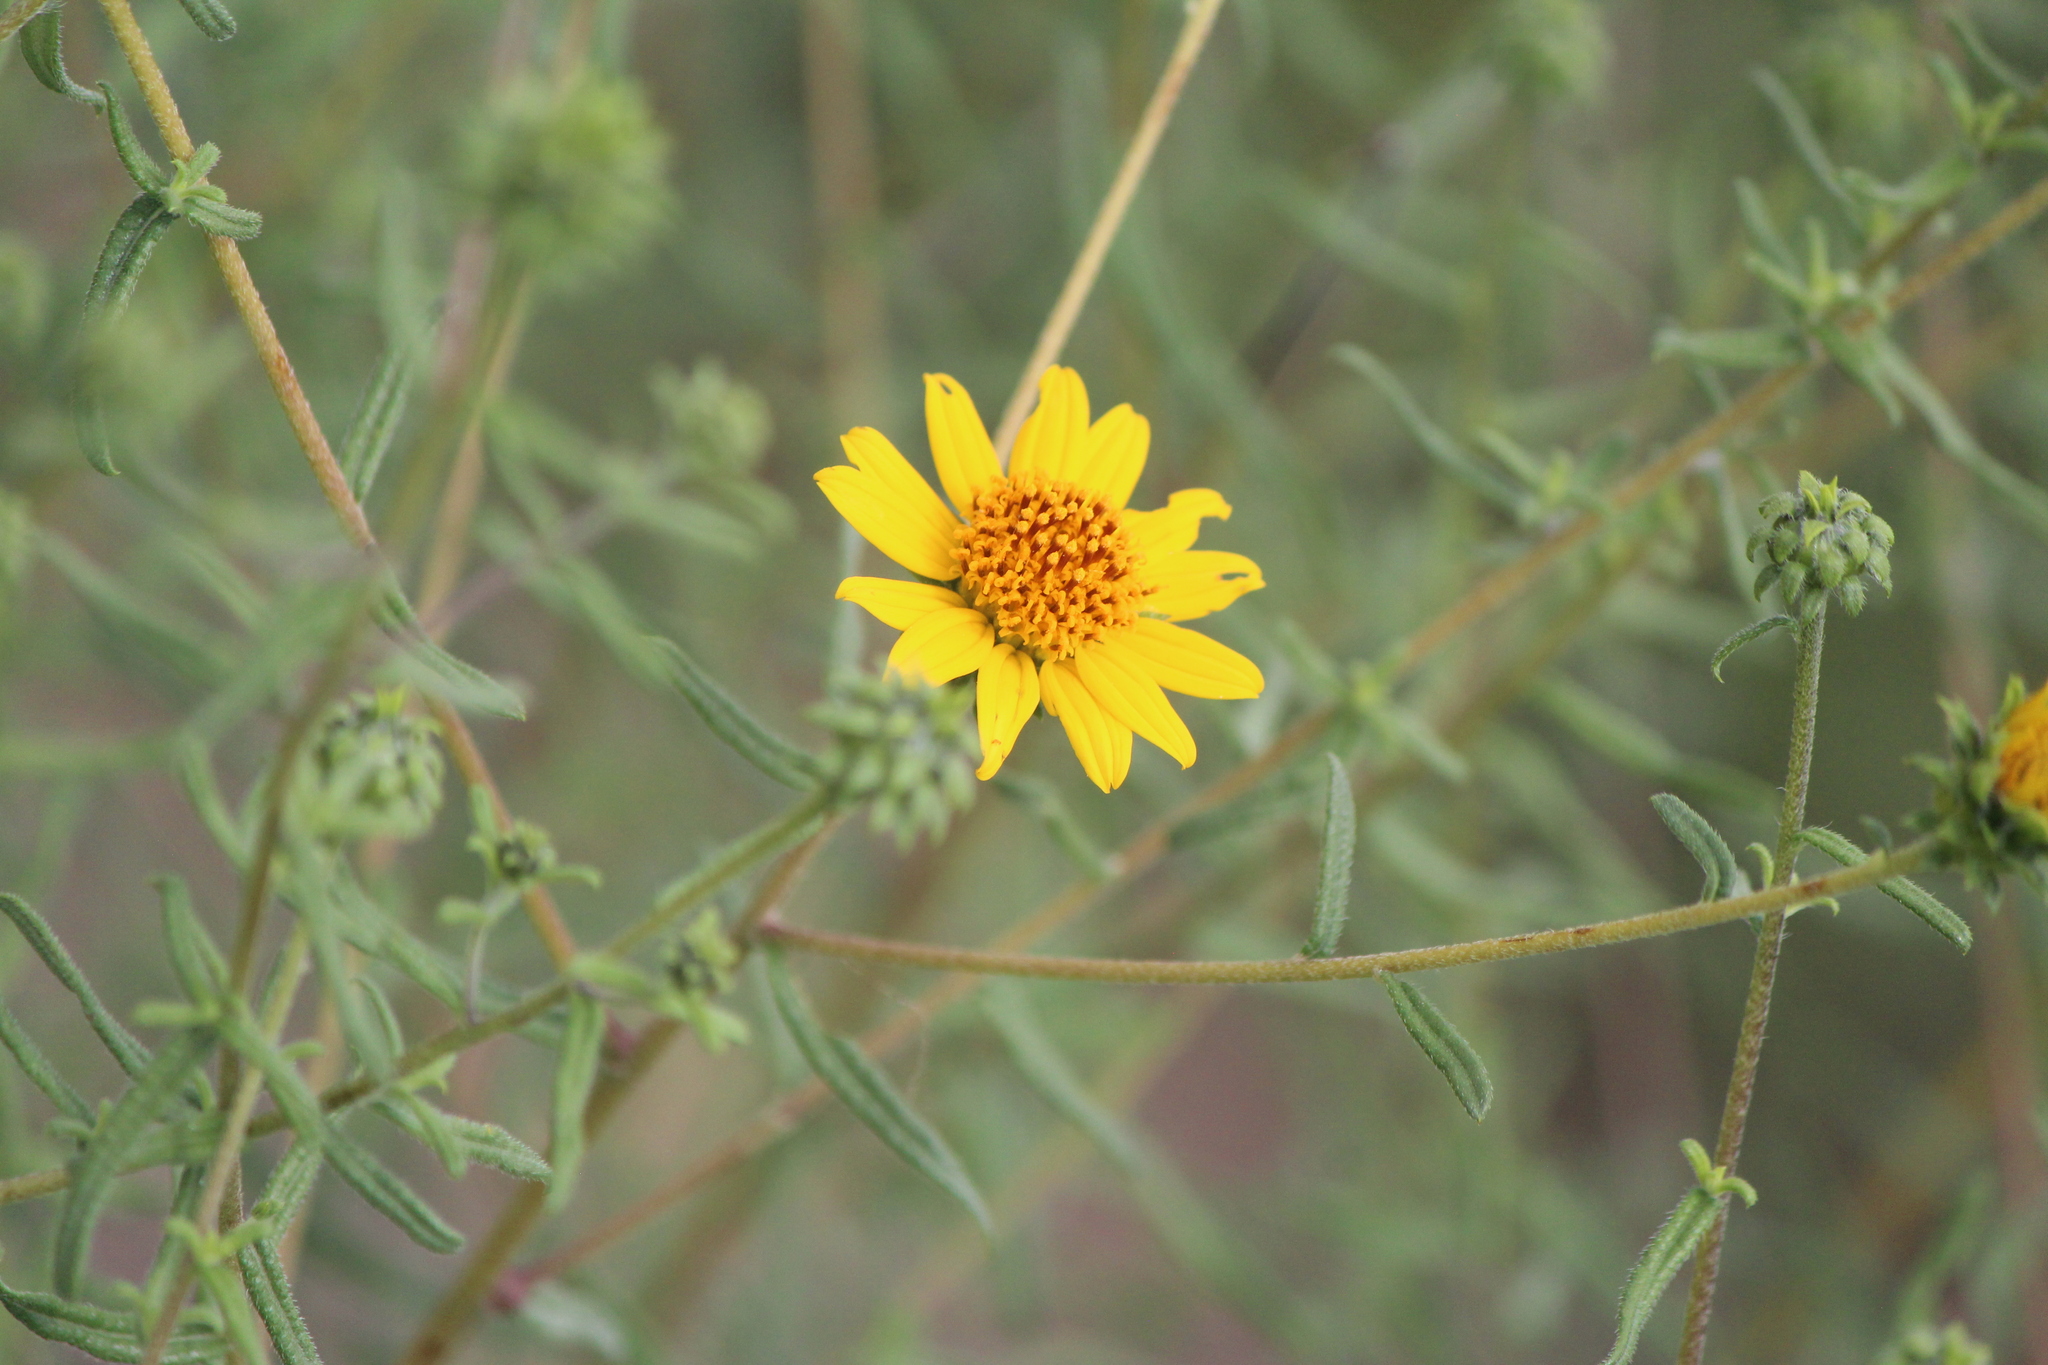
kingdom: Plantae
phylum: Tracheophyta
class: Magnoliopsida
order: Asterales
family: Asteraceae
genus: Aldama
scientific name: Aldama linearis
